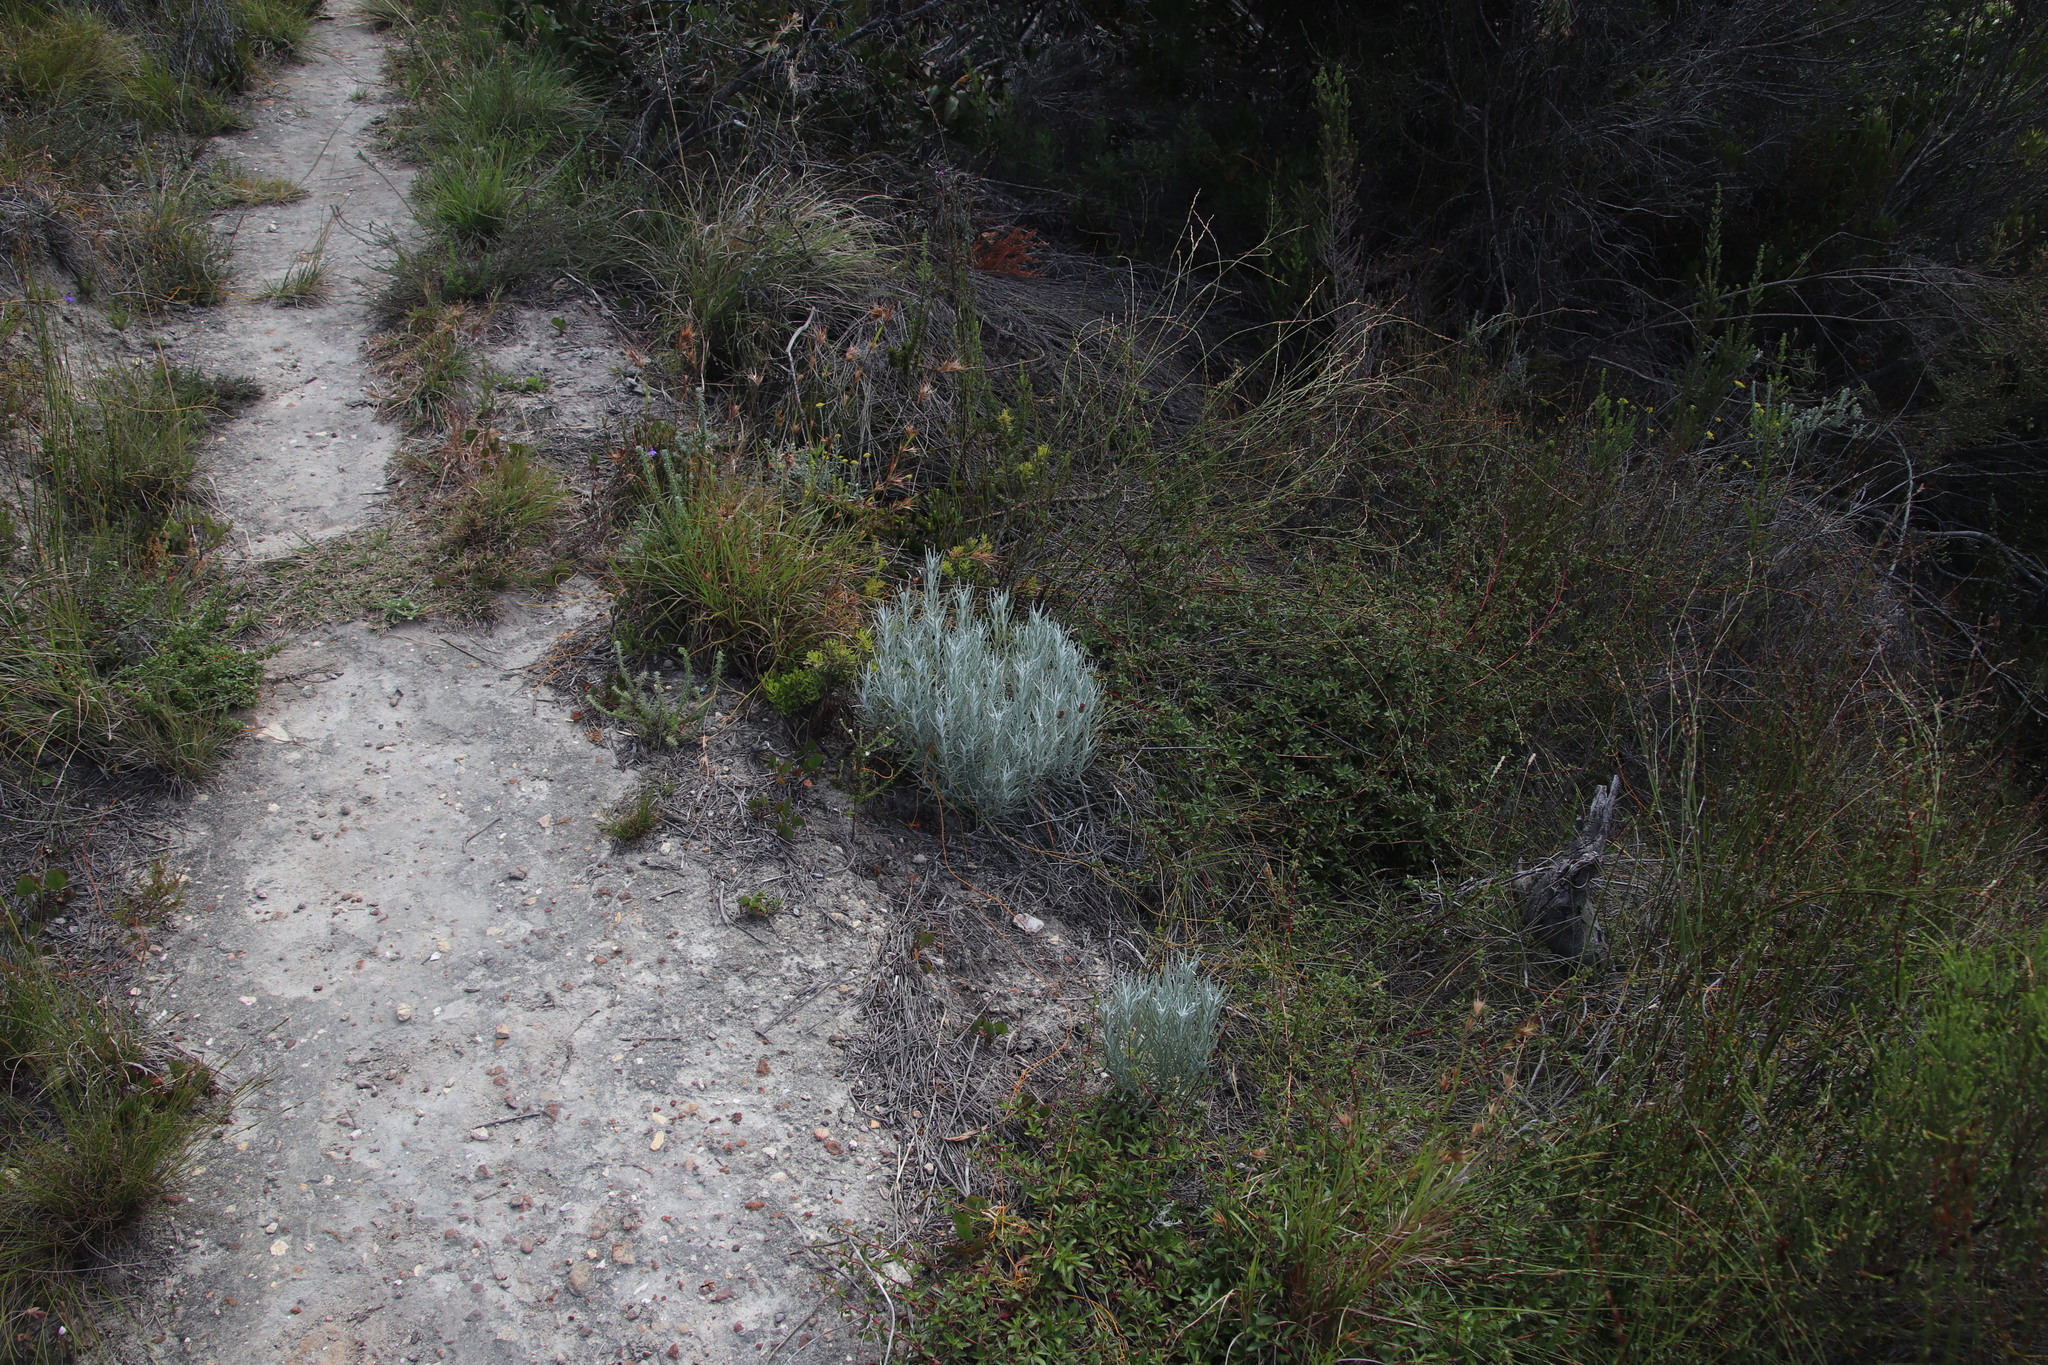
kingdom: Plantae
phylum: Tracheophyta
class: Magnoliopsida
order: Asterales
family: Asteraceae
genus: Syncarpha
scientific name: Syncarpha gnaphaloides
